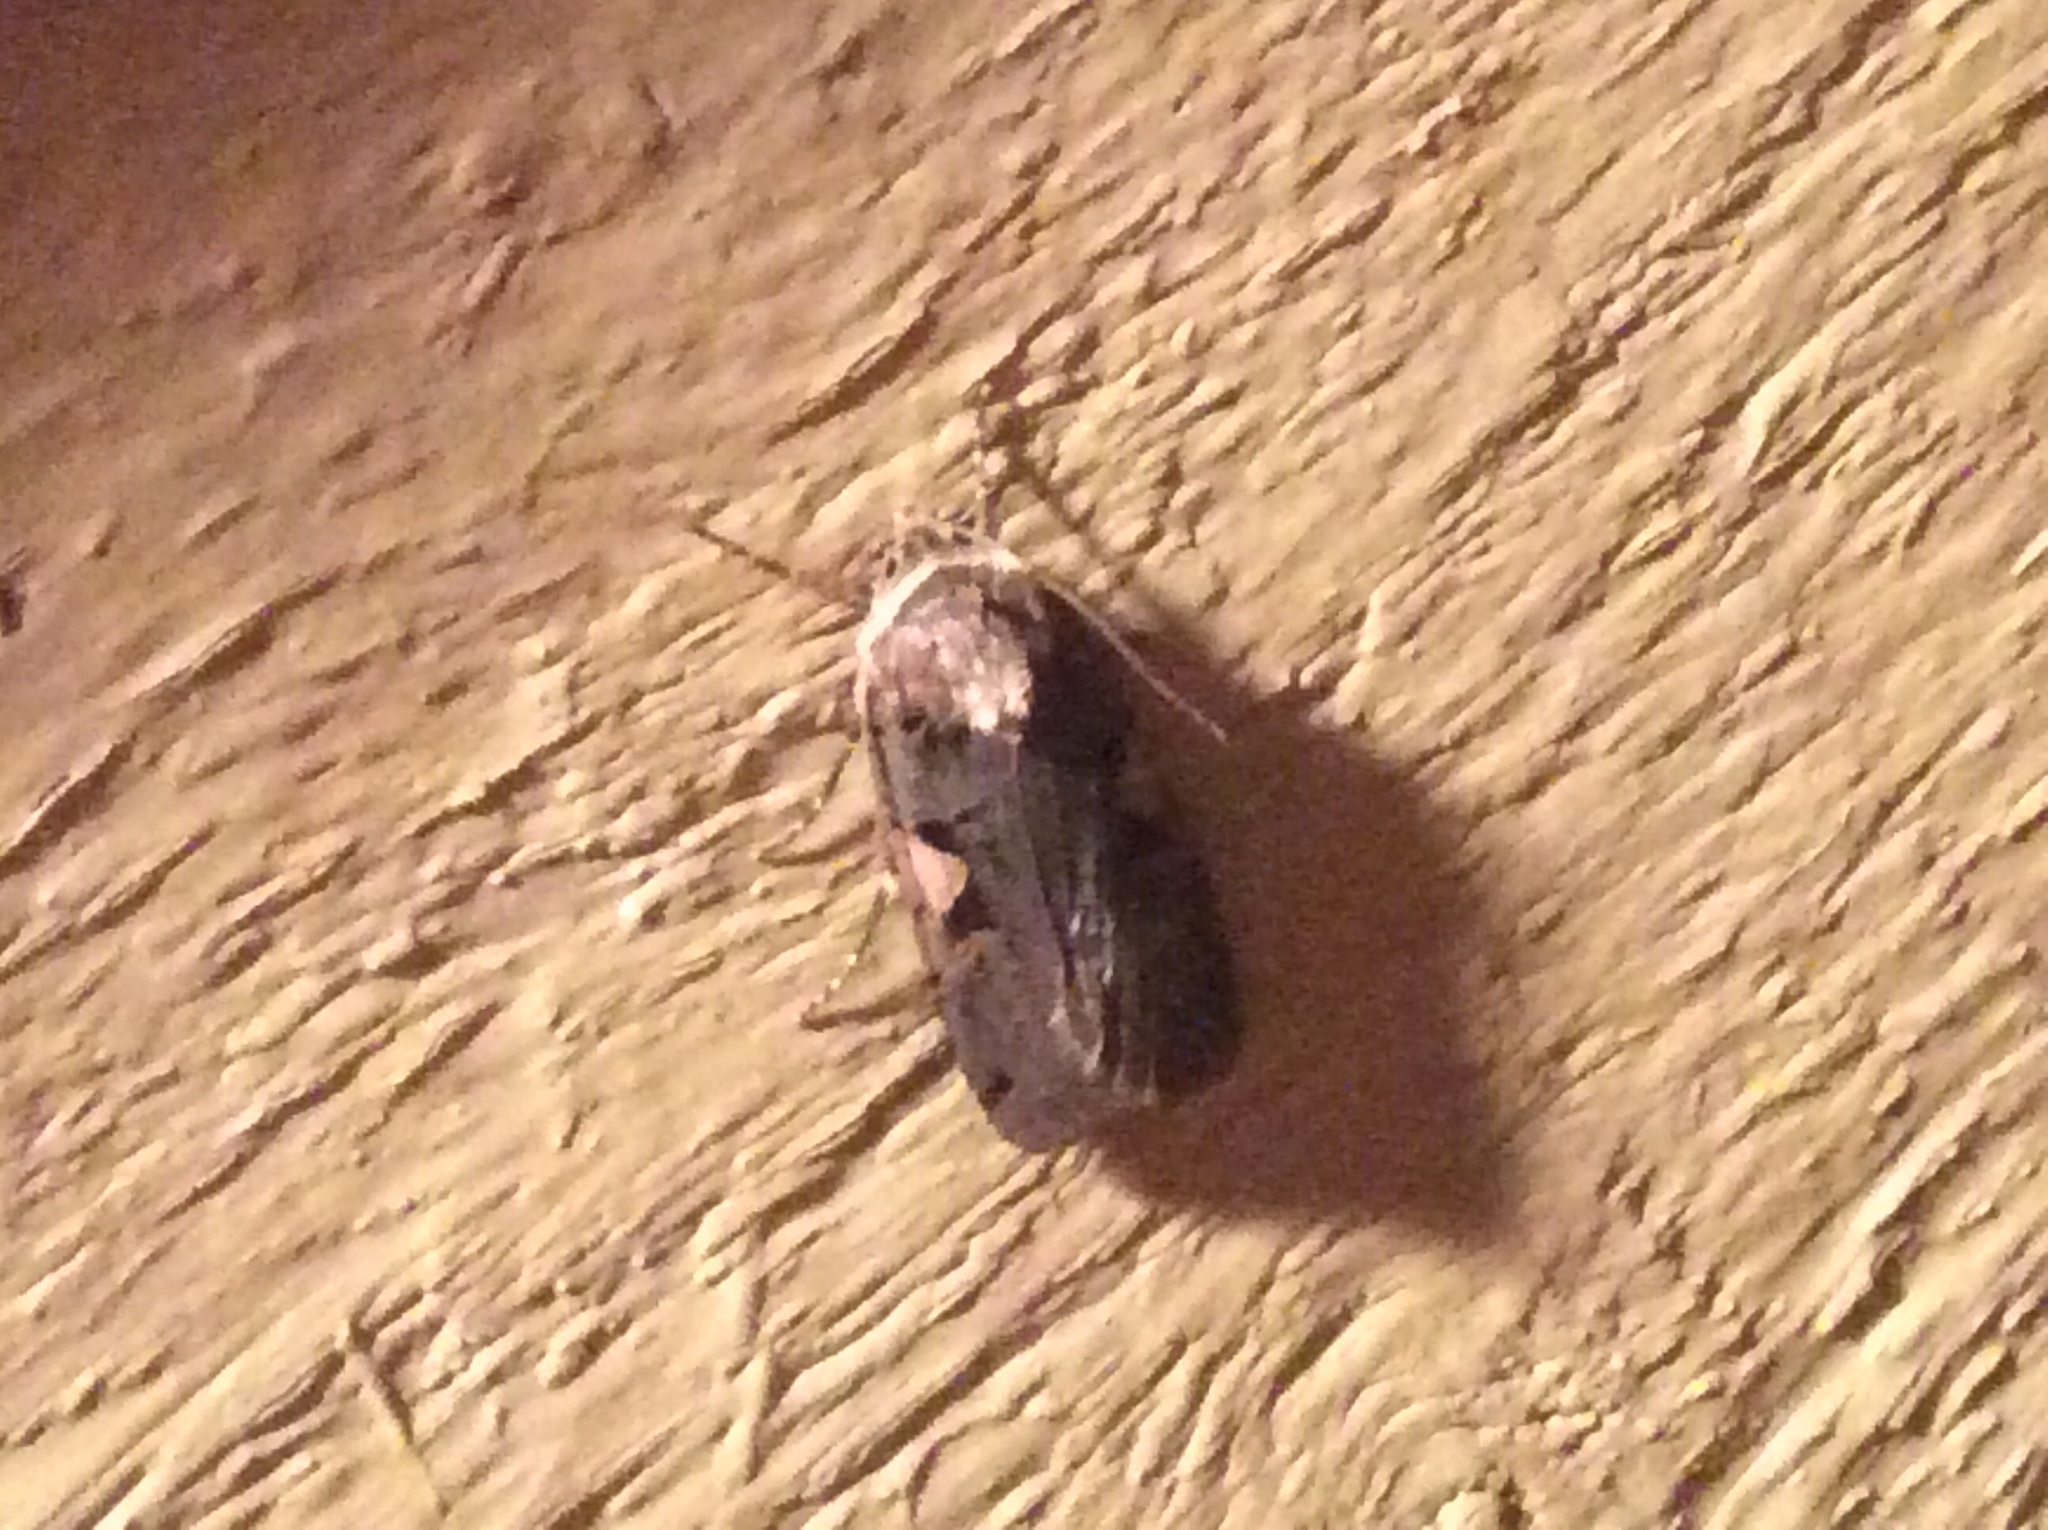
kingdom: Animalia
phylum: Arthropoda
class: Insecta
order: Lepidoptera
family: Noctuidae
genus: Xestia
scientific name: Xestia
